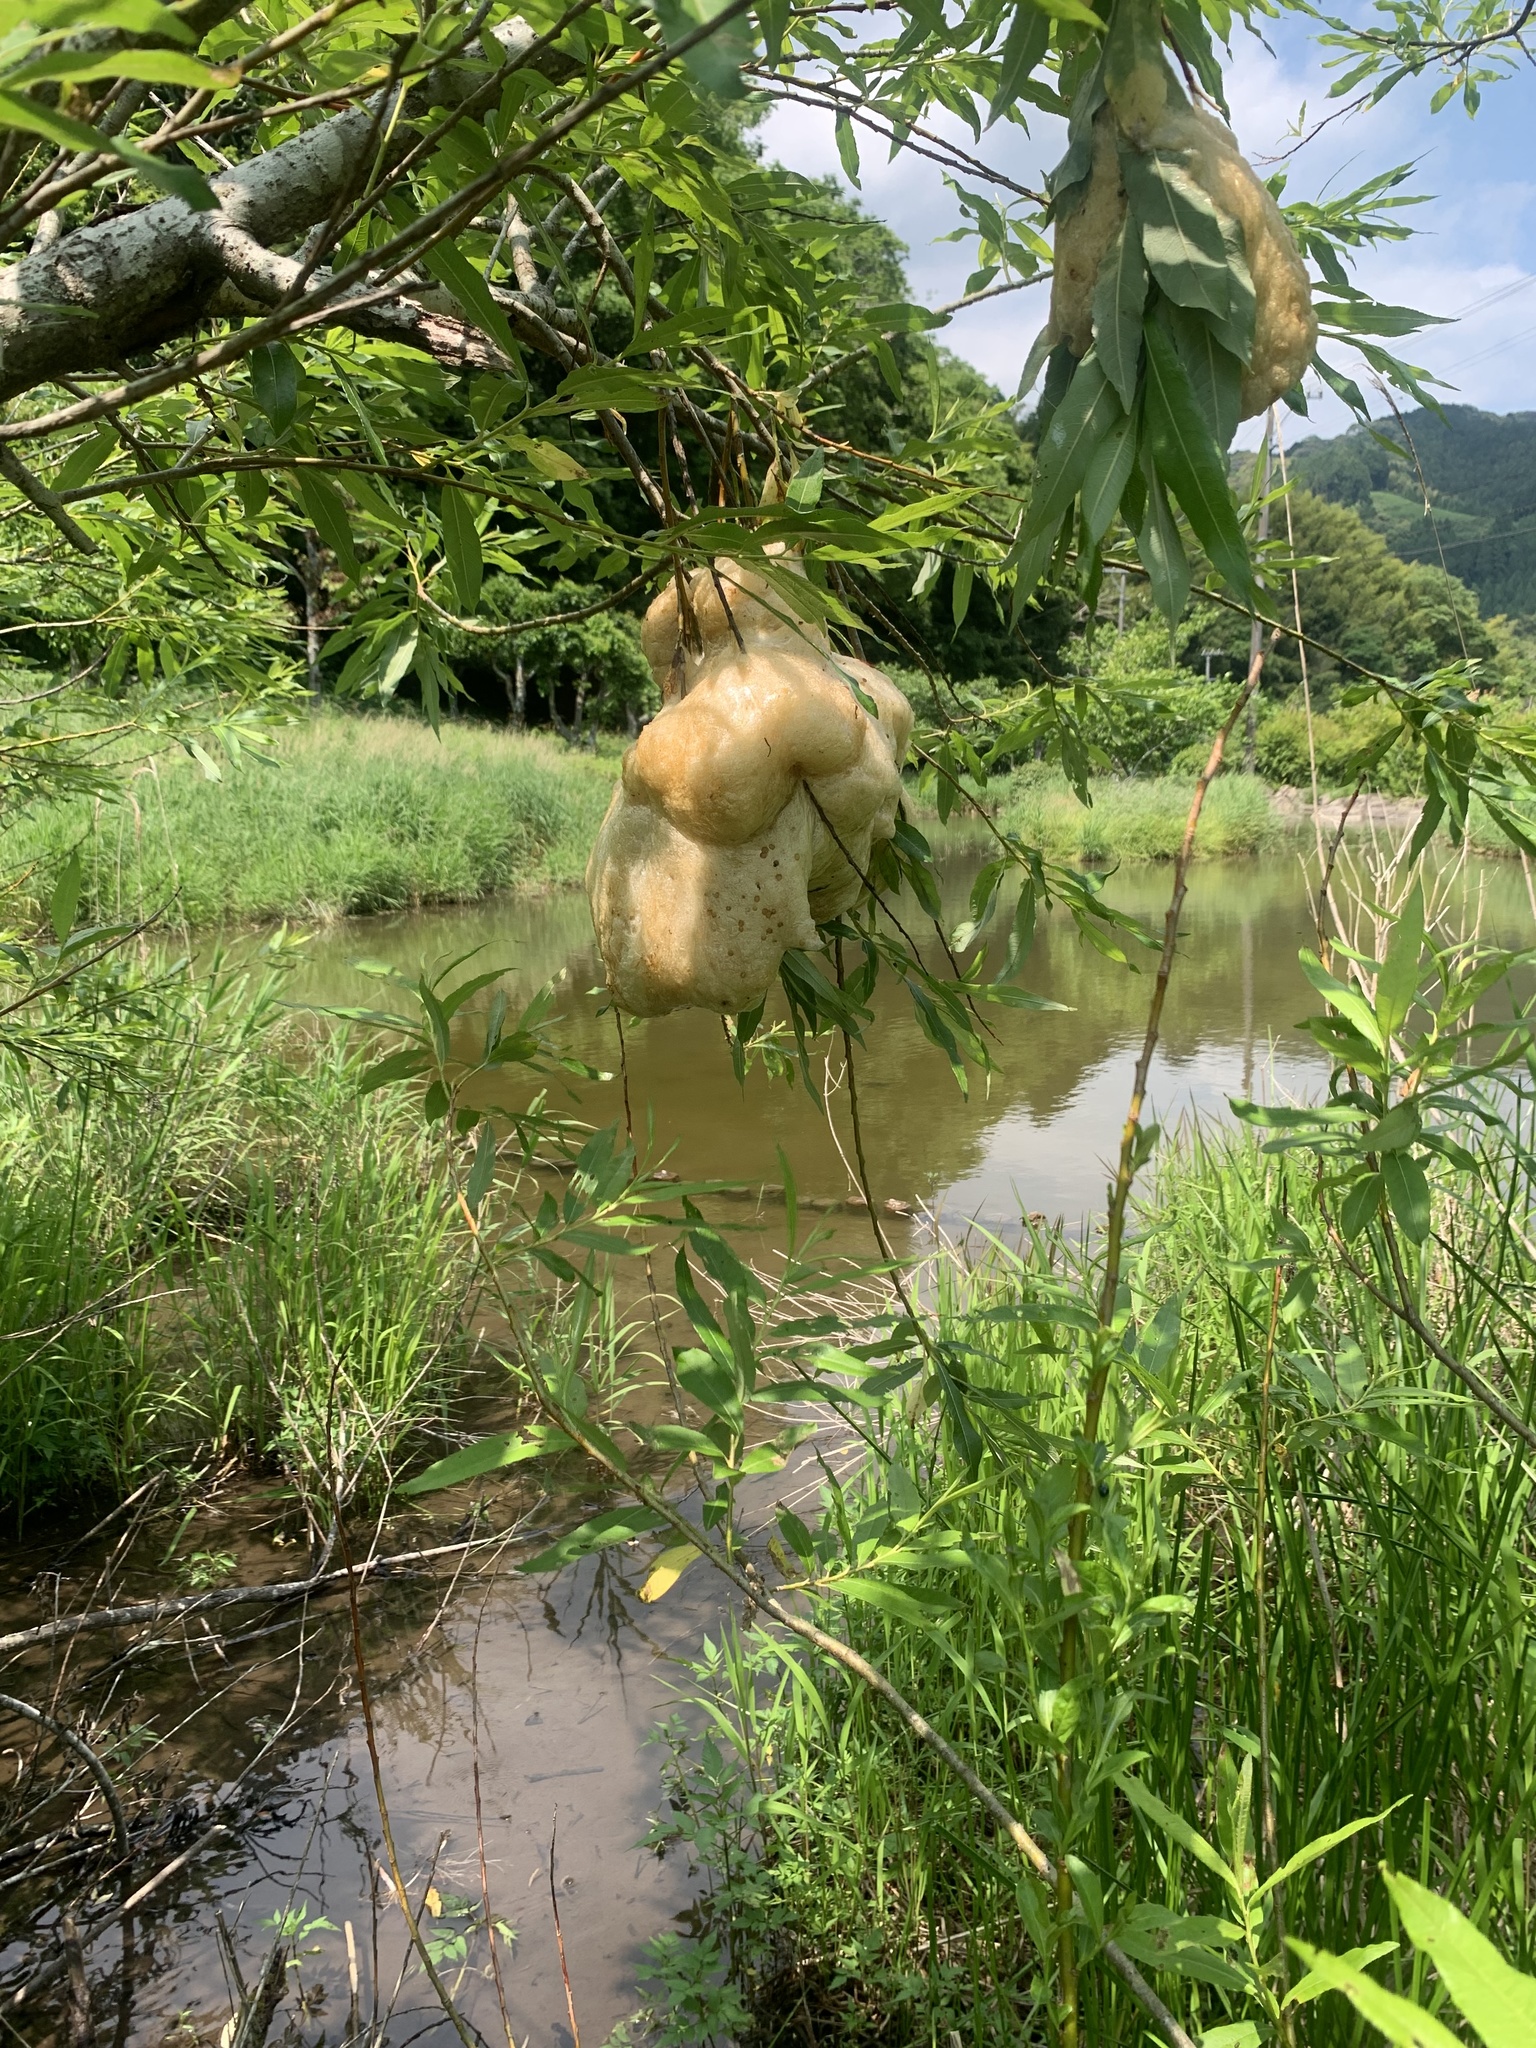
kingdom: Animalia
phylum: Chordata
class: Amphibia
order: Anura
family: Rhacophoridae
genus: Zhangixalus
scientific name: Zhangixalus arboreus
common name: Forest green tree frog
